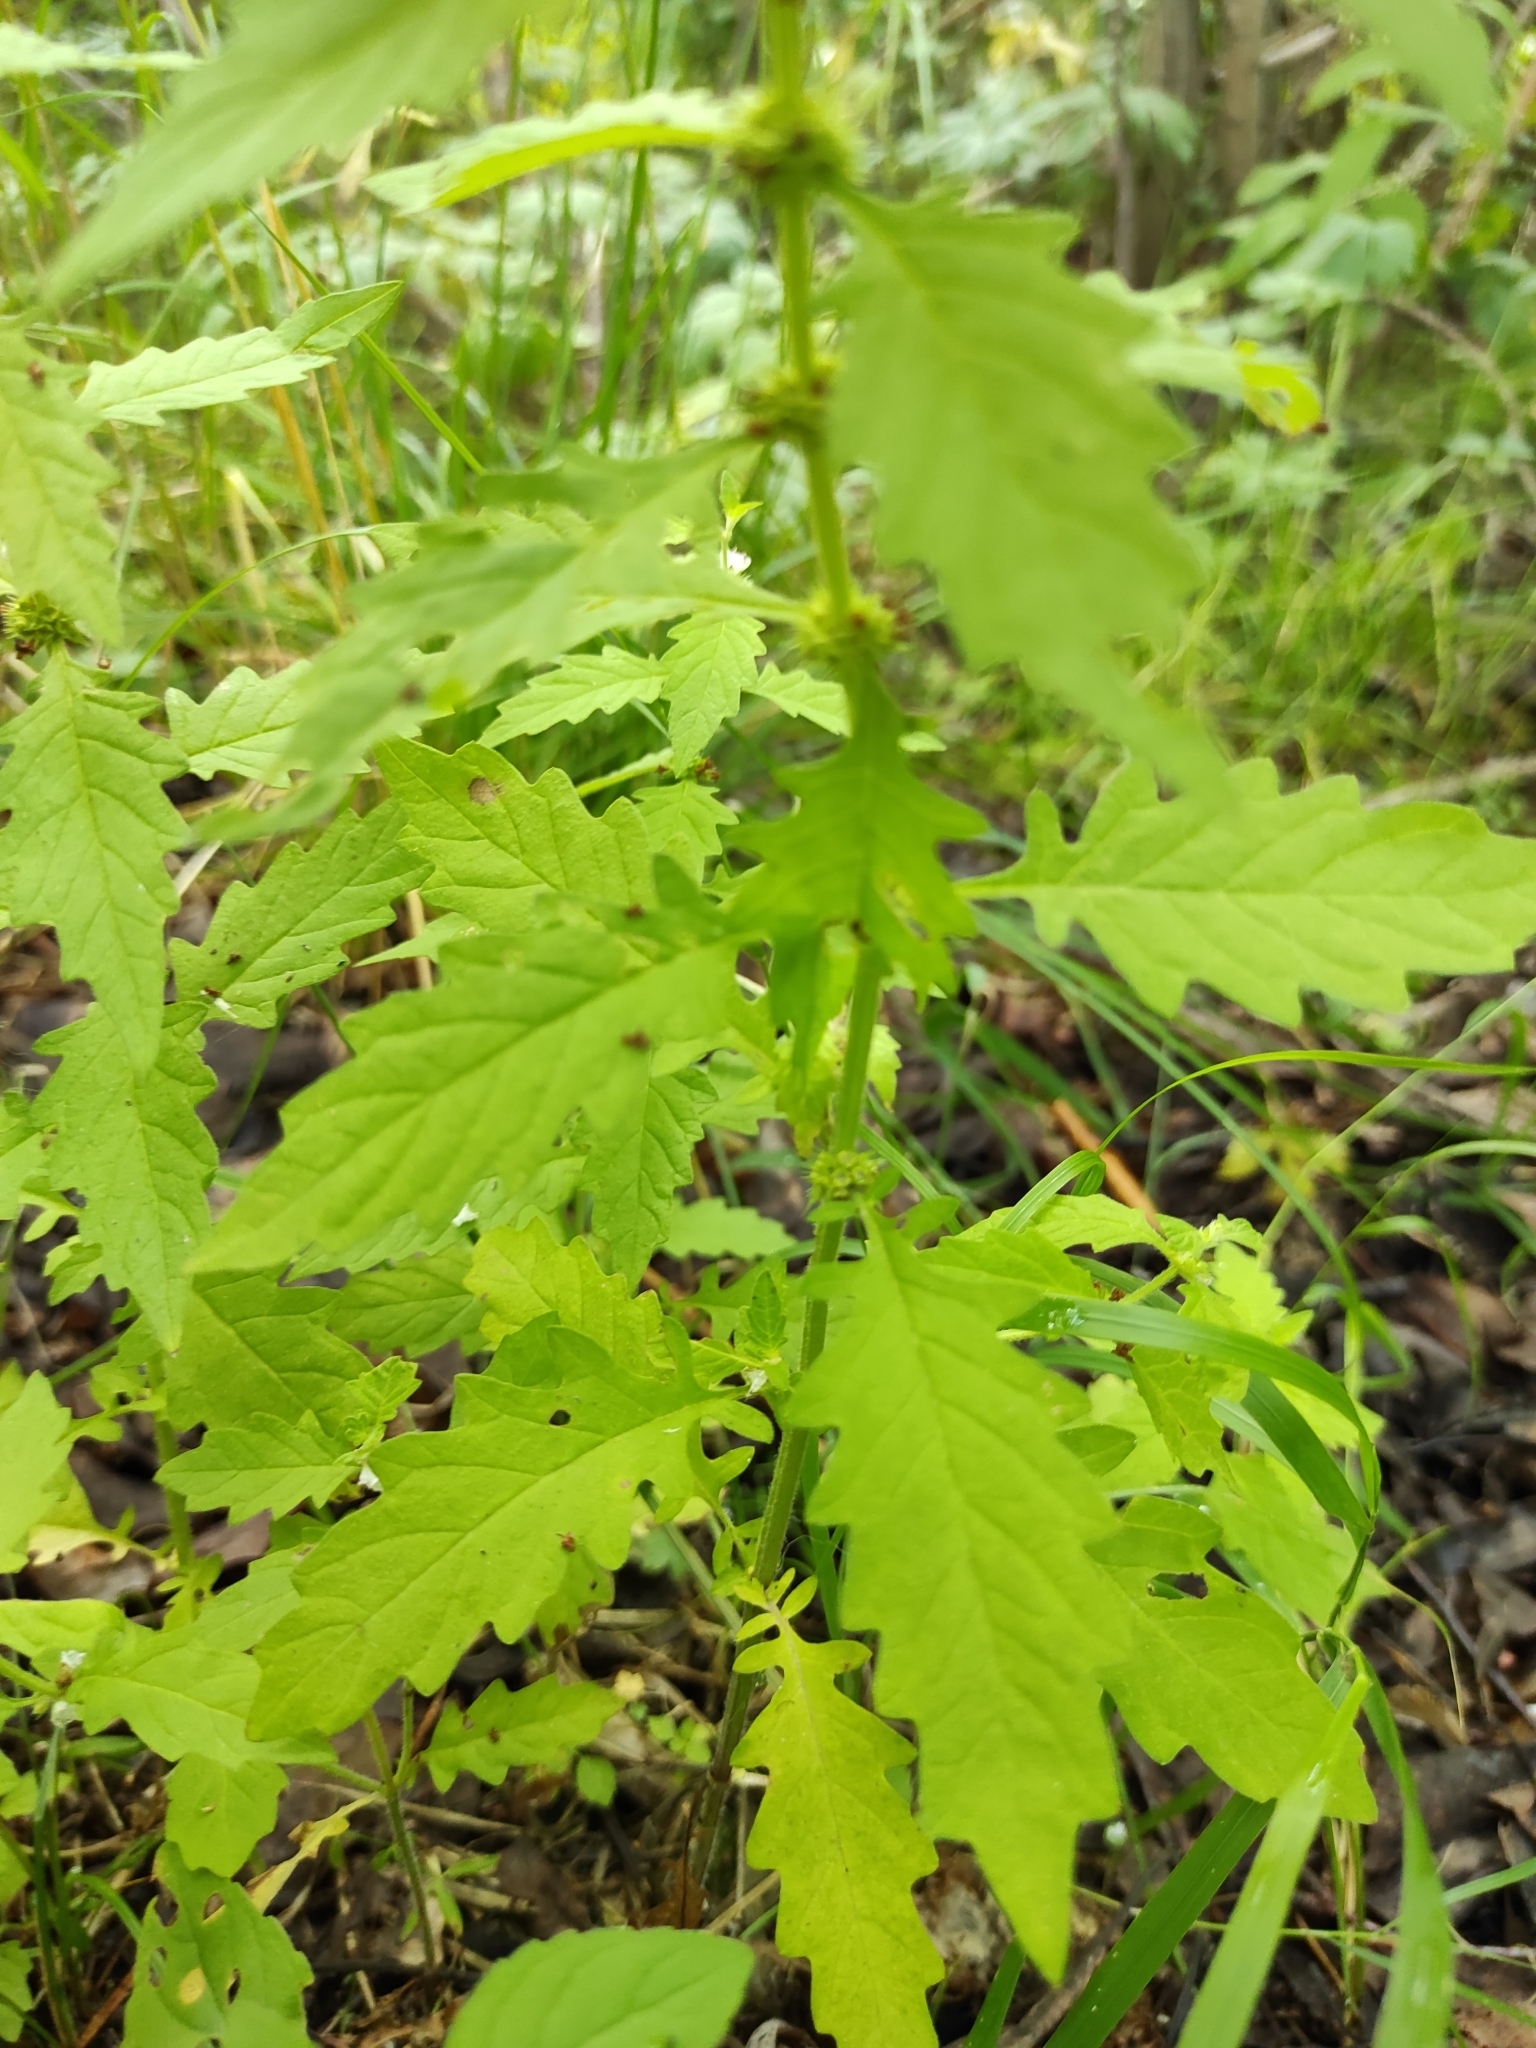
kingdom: Plantae
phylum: Tracheophyta
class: Magnoliopsida
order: Lamiales
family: Lamiaceae
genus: Lycopus
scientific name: Lycopus europaeus
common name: European bugleweed
